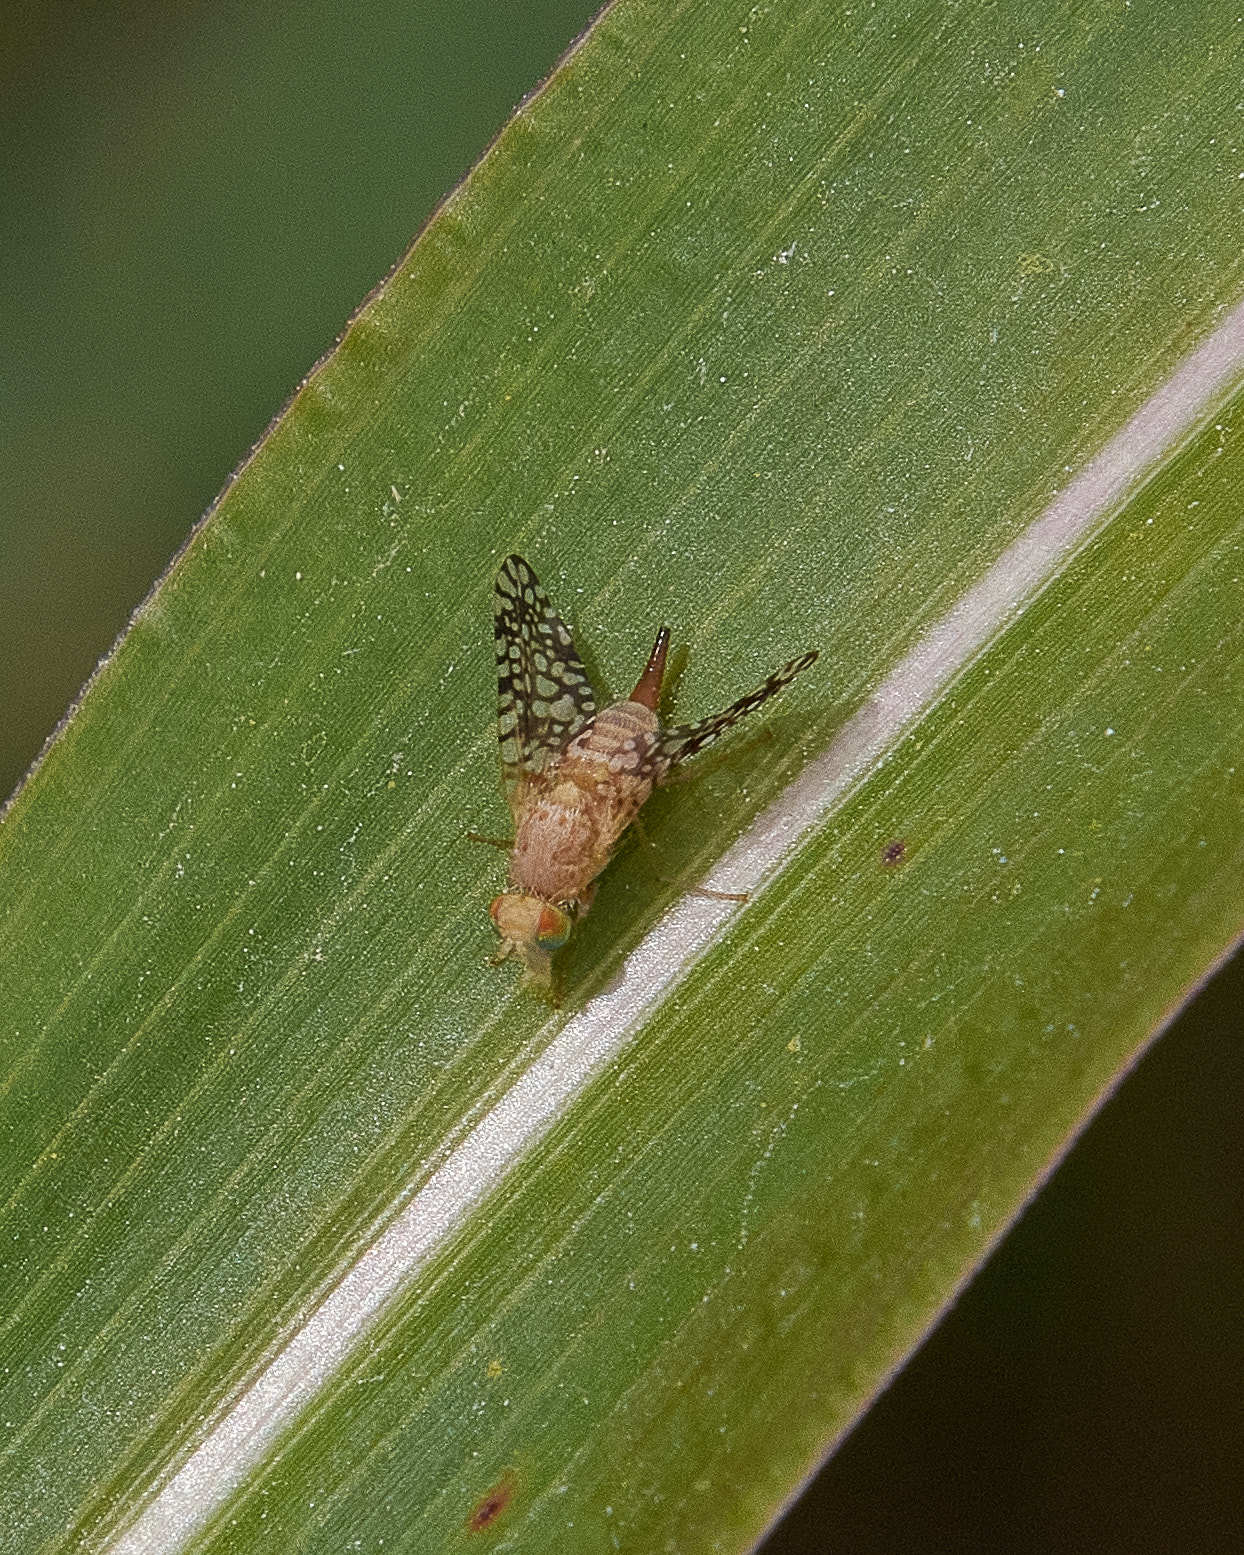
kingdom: Animalia
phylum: Arthropoda
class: Insecta
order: Diptera
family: Tephritidae
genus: Euaresta
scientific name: Euaresta aequalis
